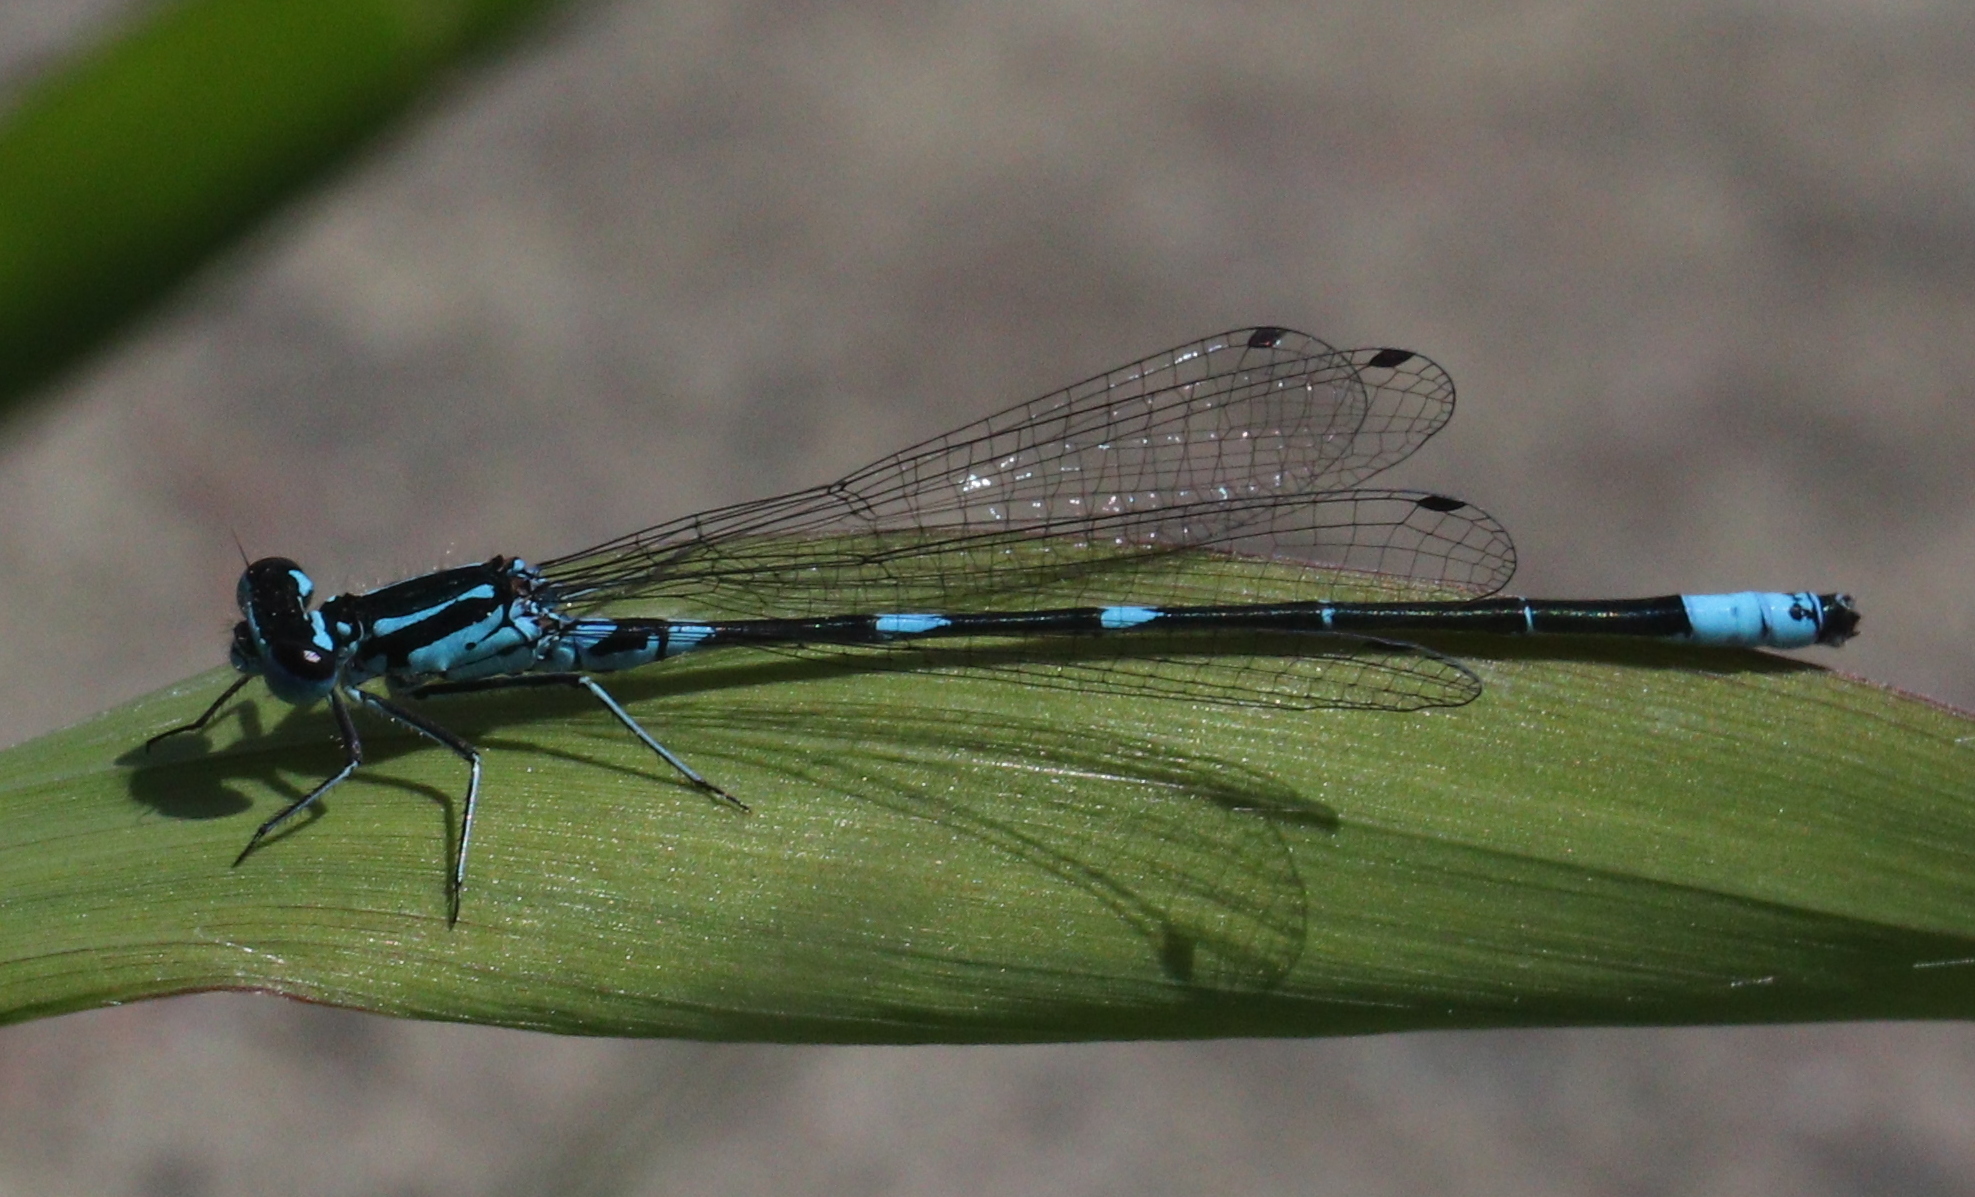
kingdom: Animalia
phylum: Arthropoda
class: Insecta
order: Odonata
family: Coenagrionidae
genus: Coenagrion
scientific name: Coenagrion pulchellum
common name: Variable bluet
